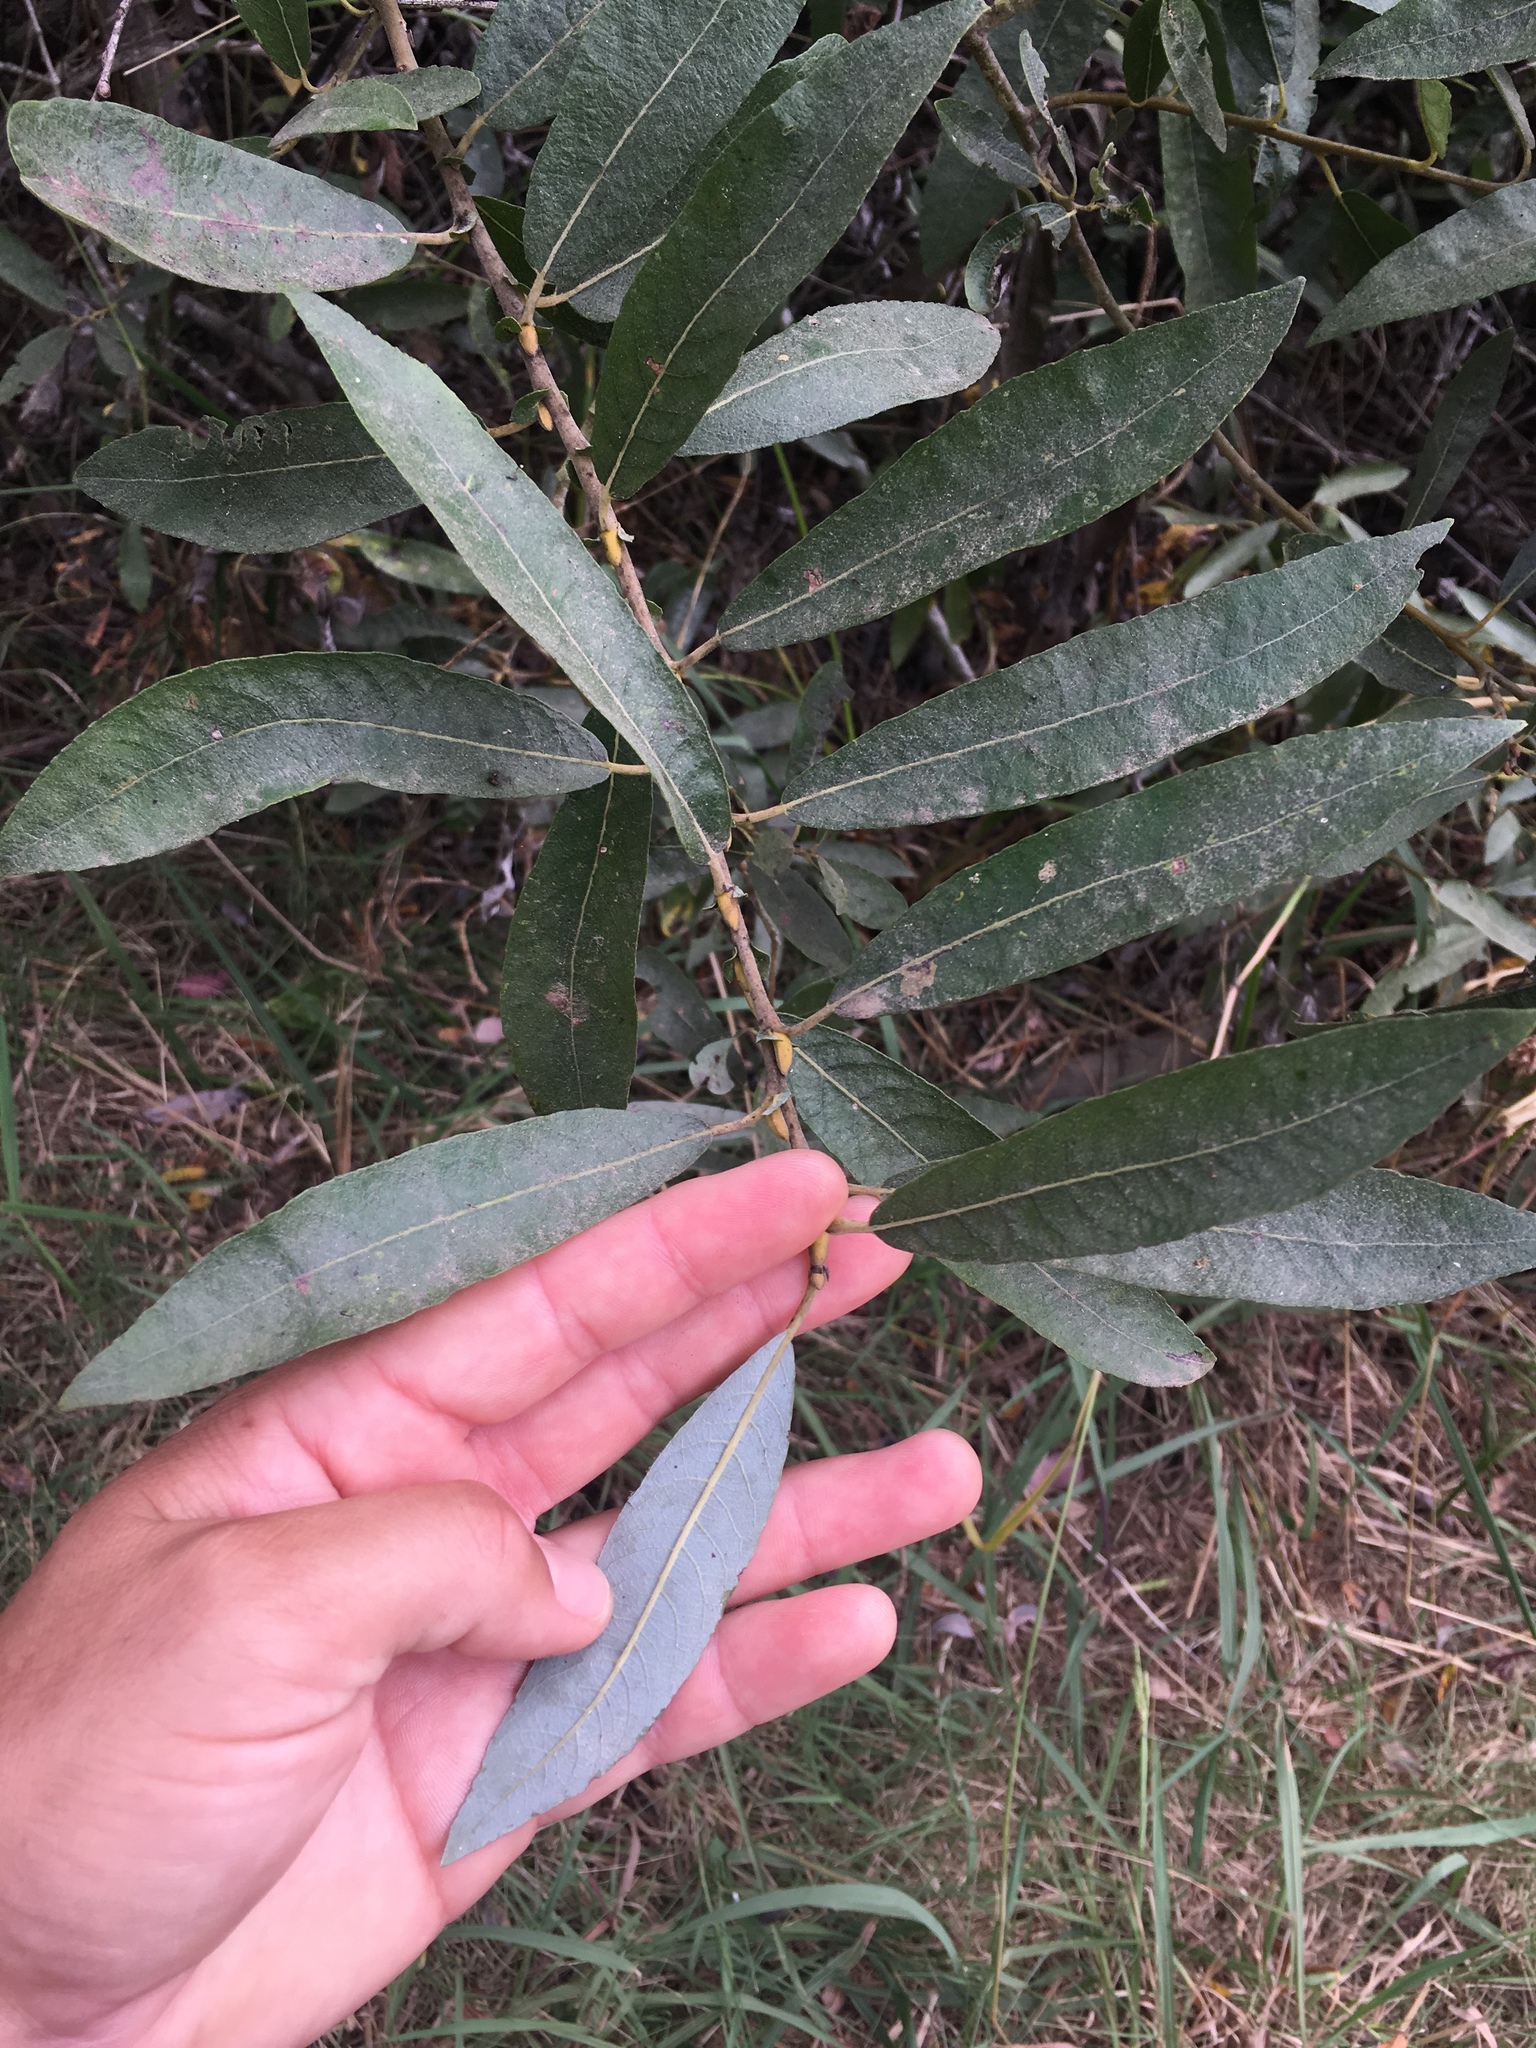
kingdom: Plantae
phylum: Tracheophyta
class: Magnoliopsida
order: Malpighiales
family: Salicaceae
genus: Salix
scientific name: Salix lasiolepis
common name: Arroyo willow
